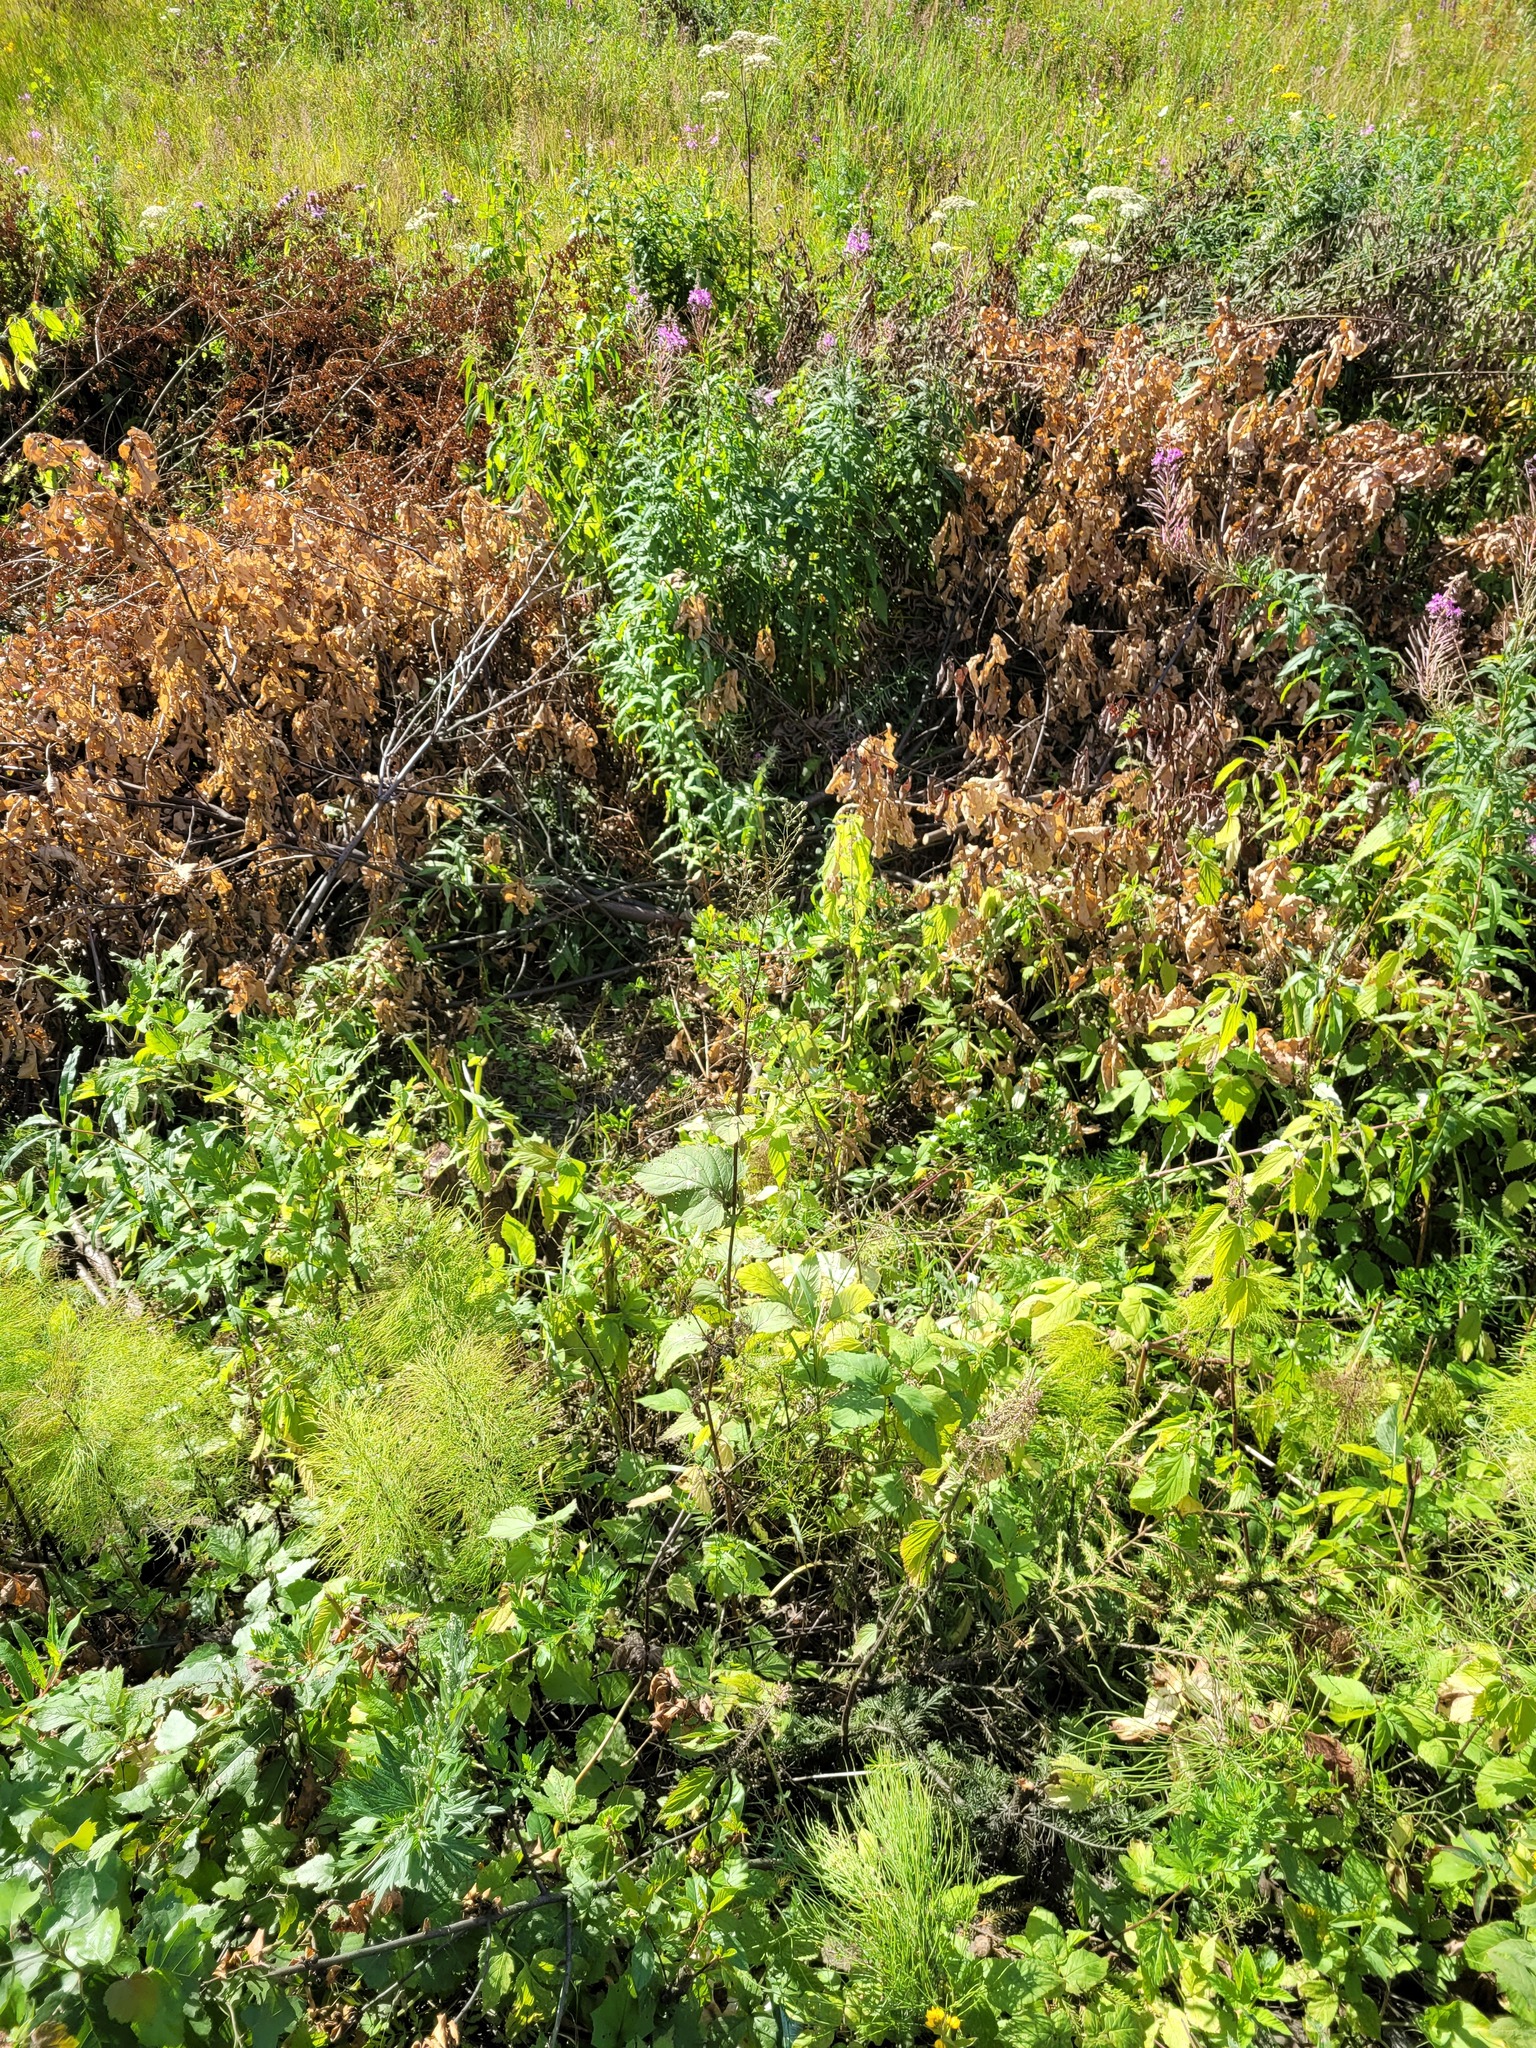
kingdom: Plantae
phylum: Tracheophyta
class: Magnoliopsida
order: Lamiales
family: Scrophulariaceae
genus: Scrophularia
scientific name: Scrophularia nodosa
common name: Common figwort
